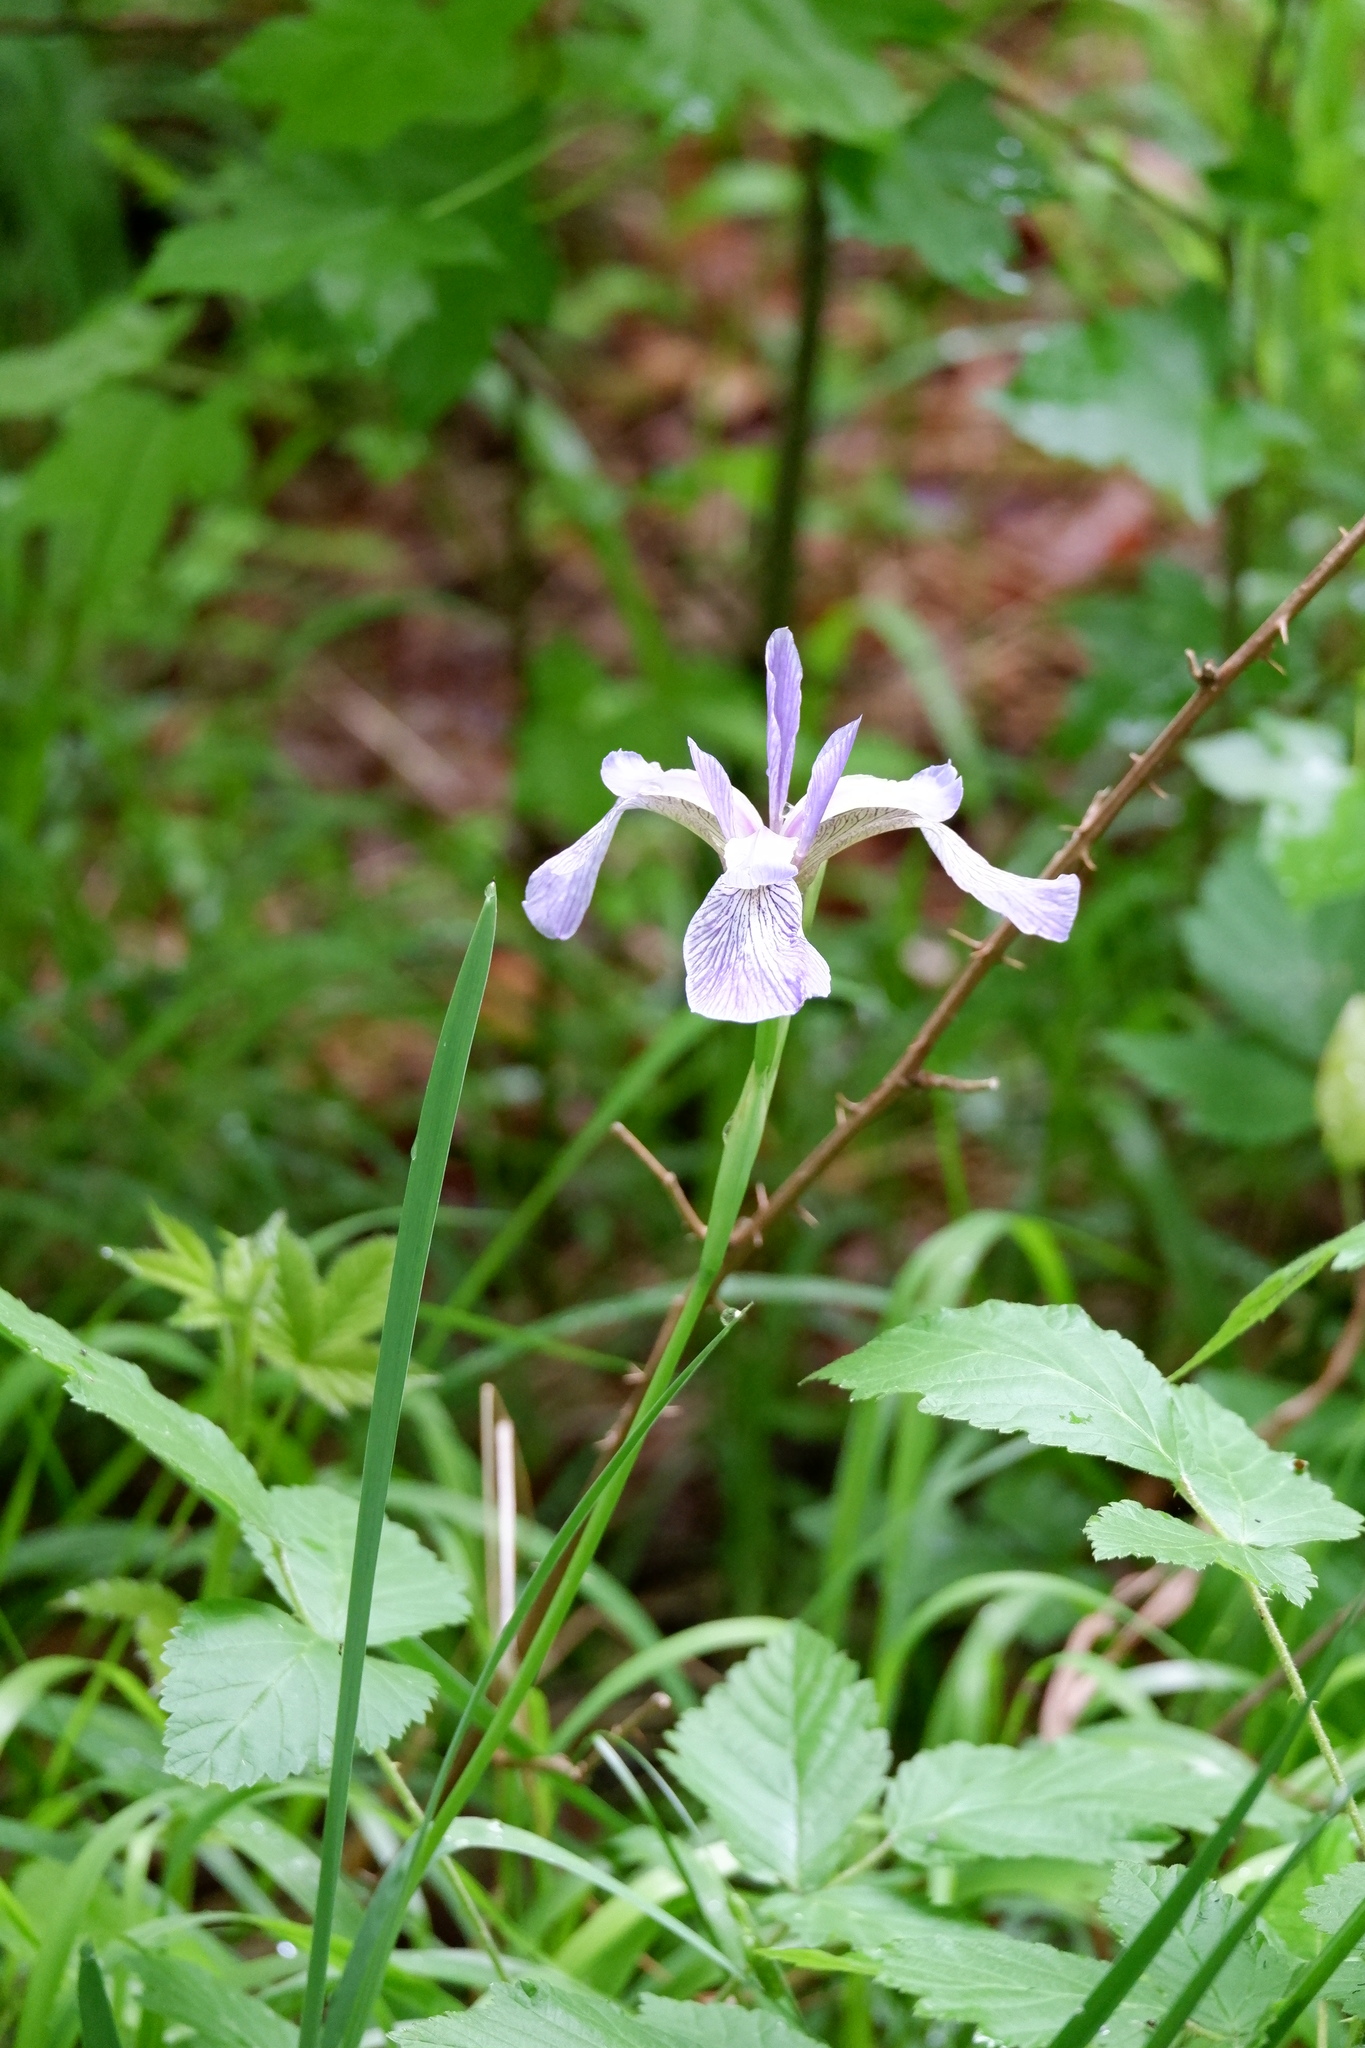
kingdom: Plantae
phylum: Tracheophyta
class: Liliopsida
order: Asparagales
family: Iridaceae
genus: Iris
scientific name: Iris prismatica
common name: Slender blue flag
